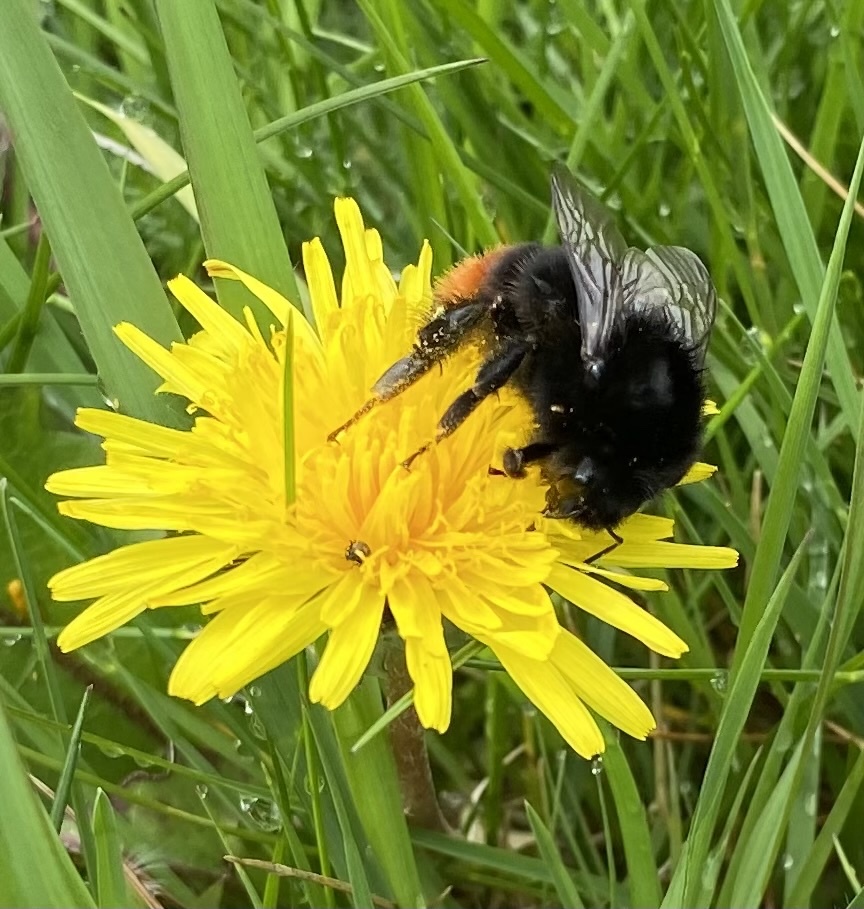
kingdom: Animalia
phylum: Arthropoda
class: Insecta
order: Hymenoptera
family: Apidae
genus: Bombus
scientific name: Bombus lapidarius
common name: Large red-tailed humble-bee
